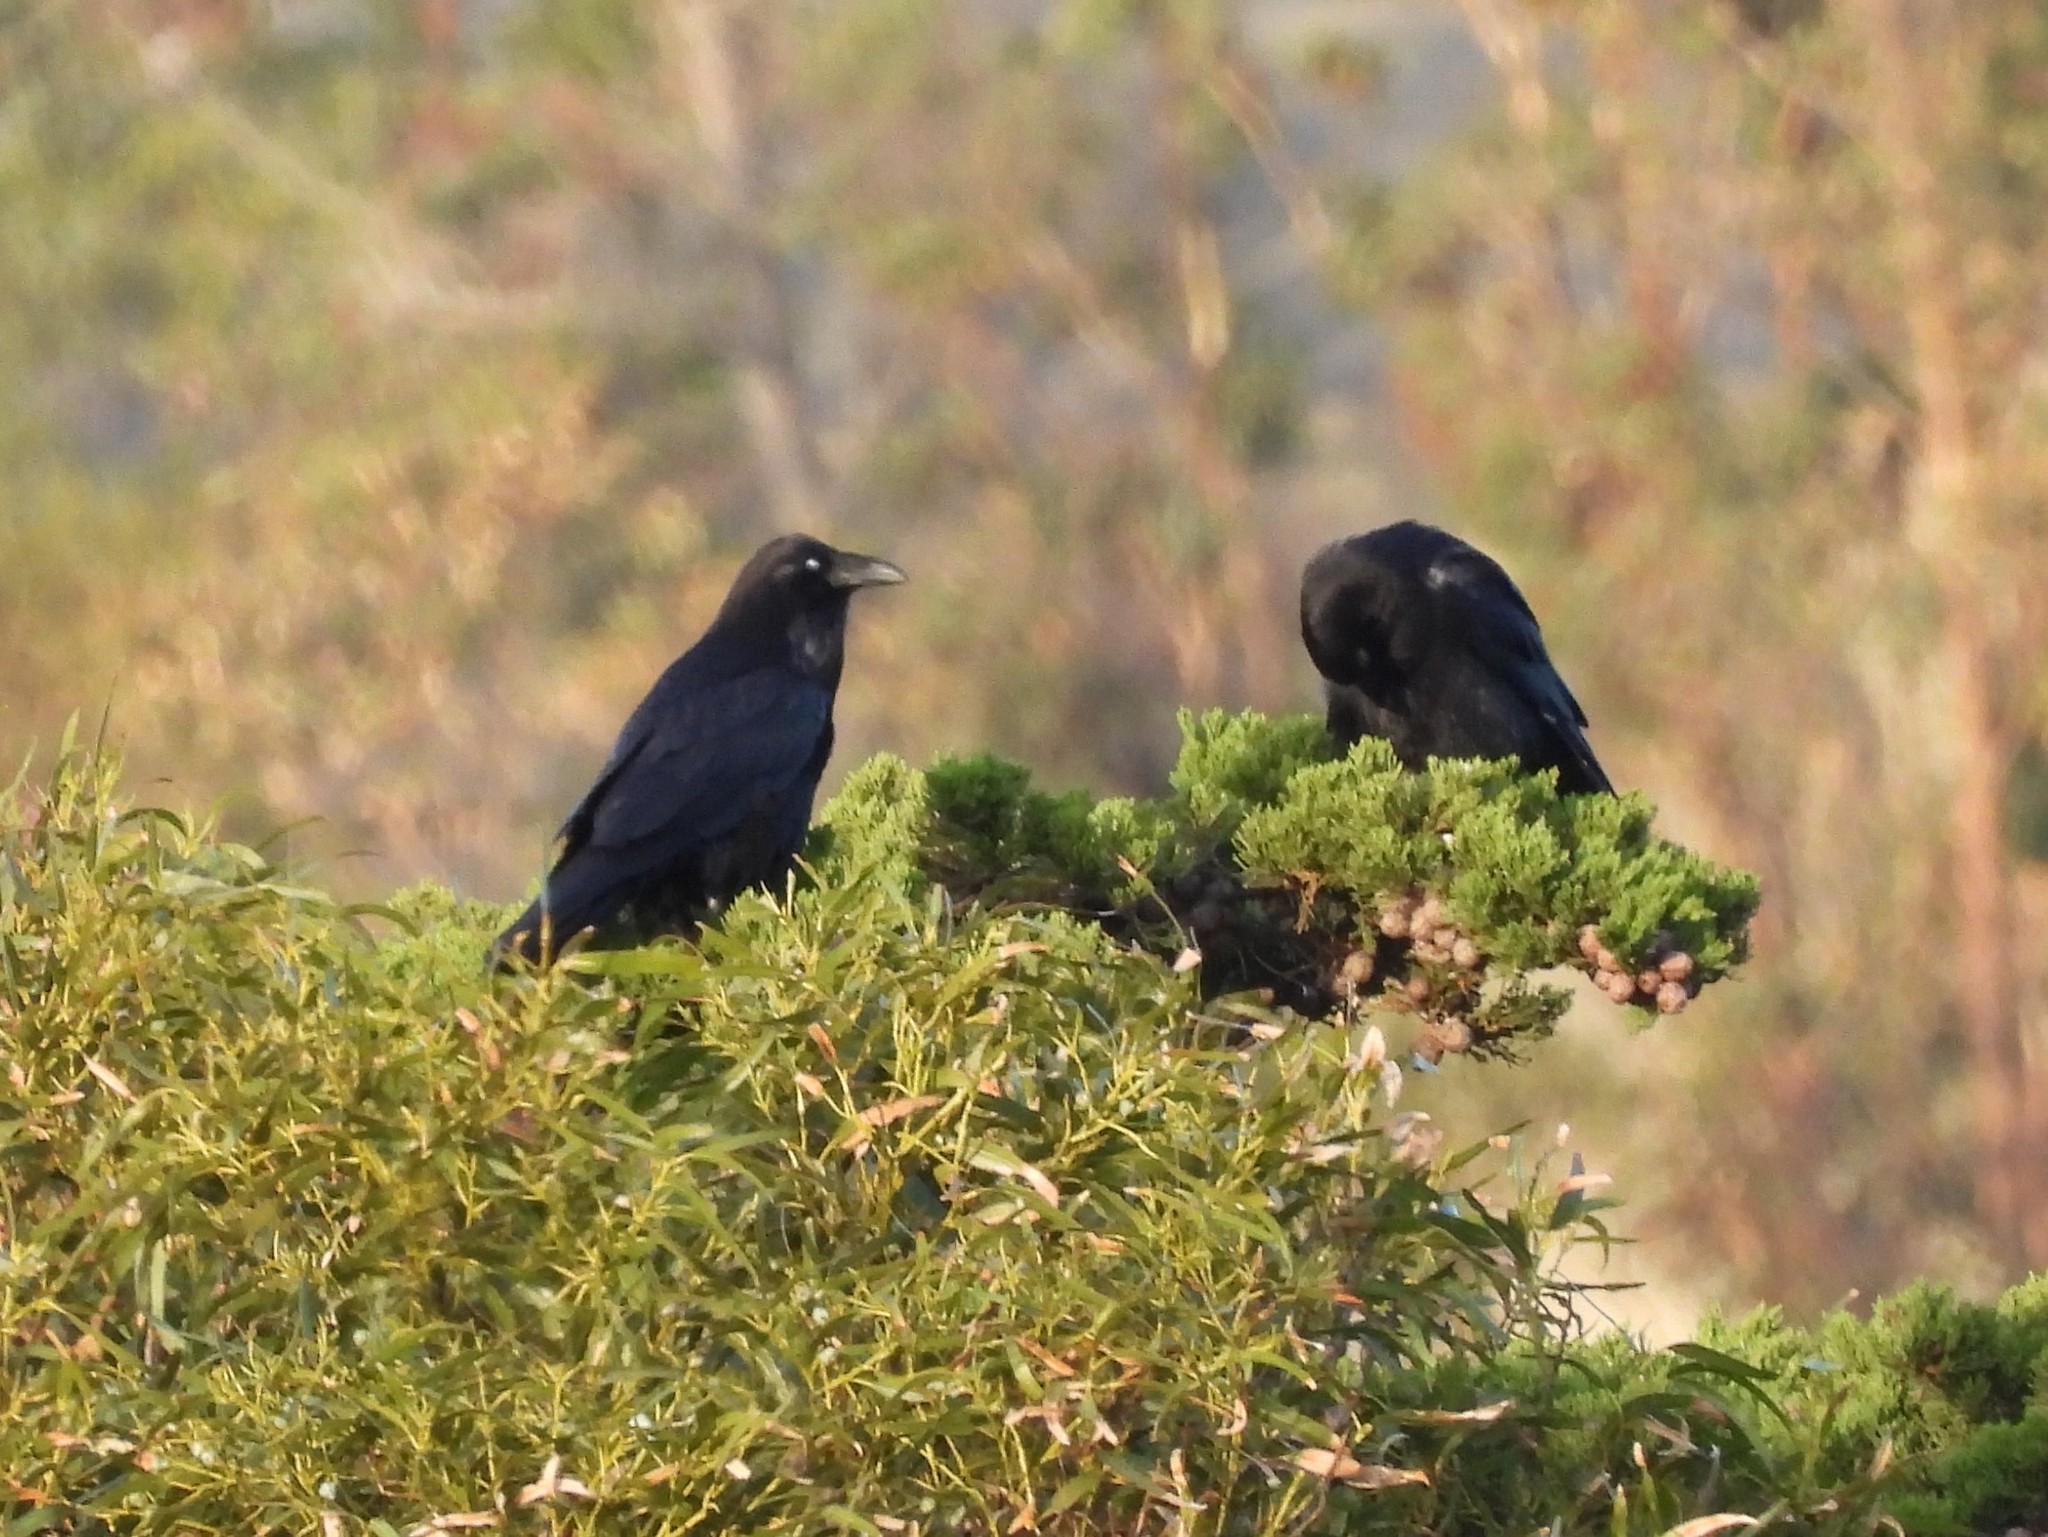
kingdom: Animalia
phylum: Chordata
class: Aves
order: Passeriformes
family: Corvidae
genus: Corvus
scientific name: Corvus brachyrhynchos
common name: American crow
